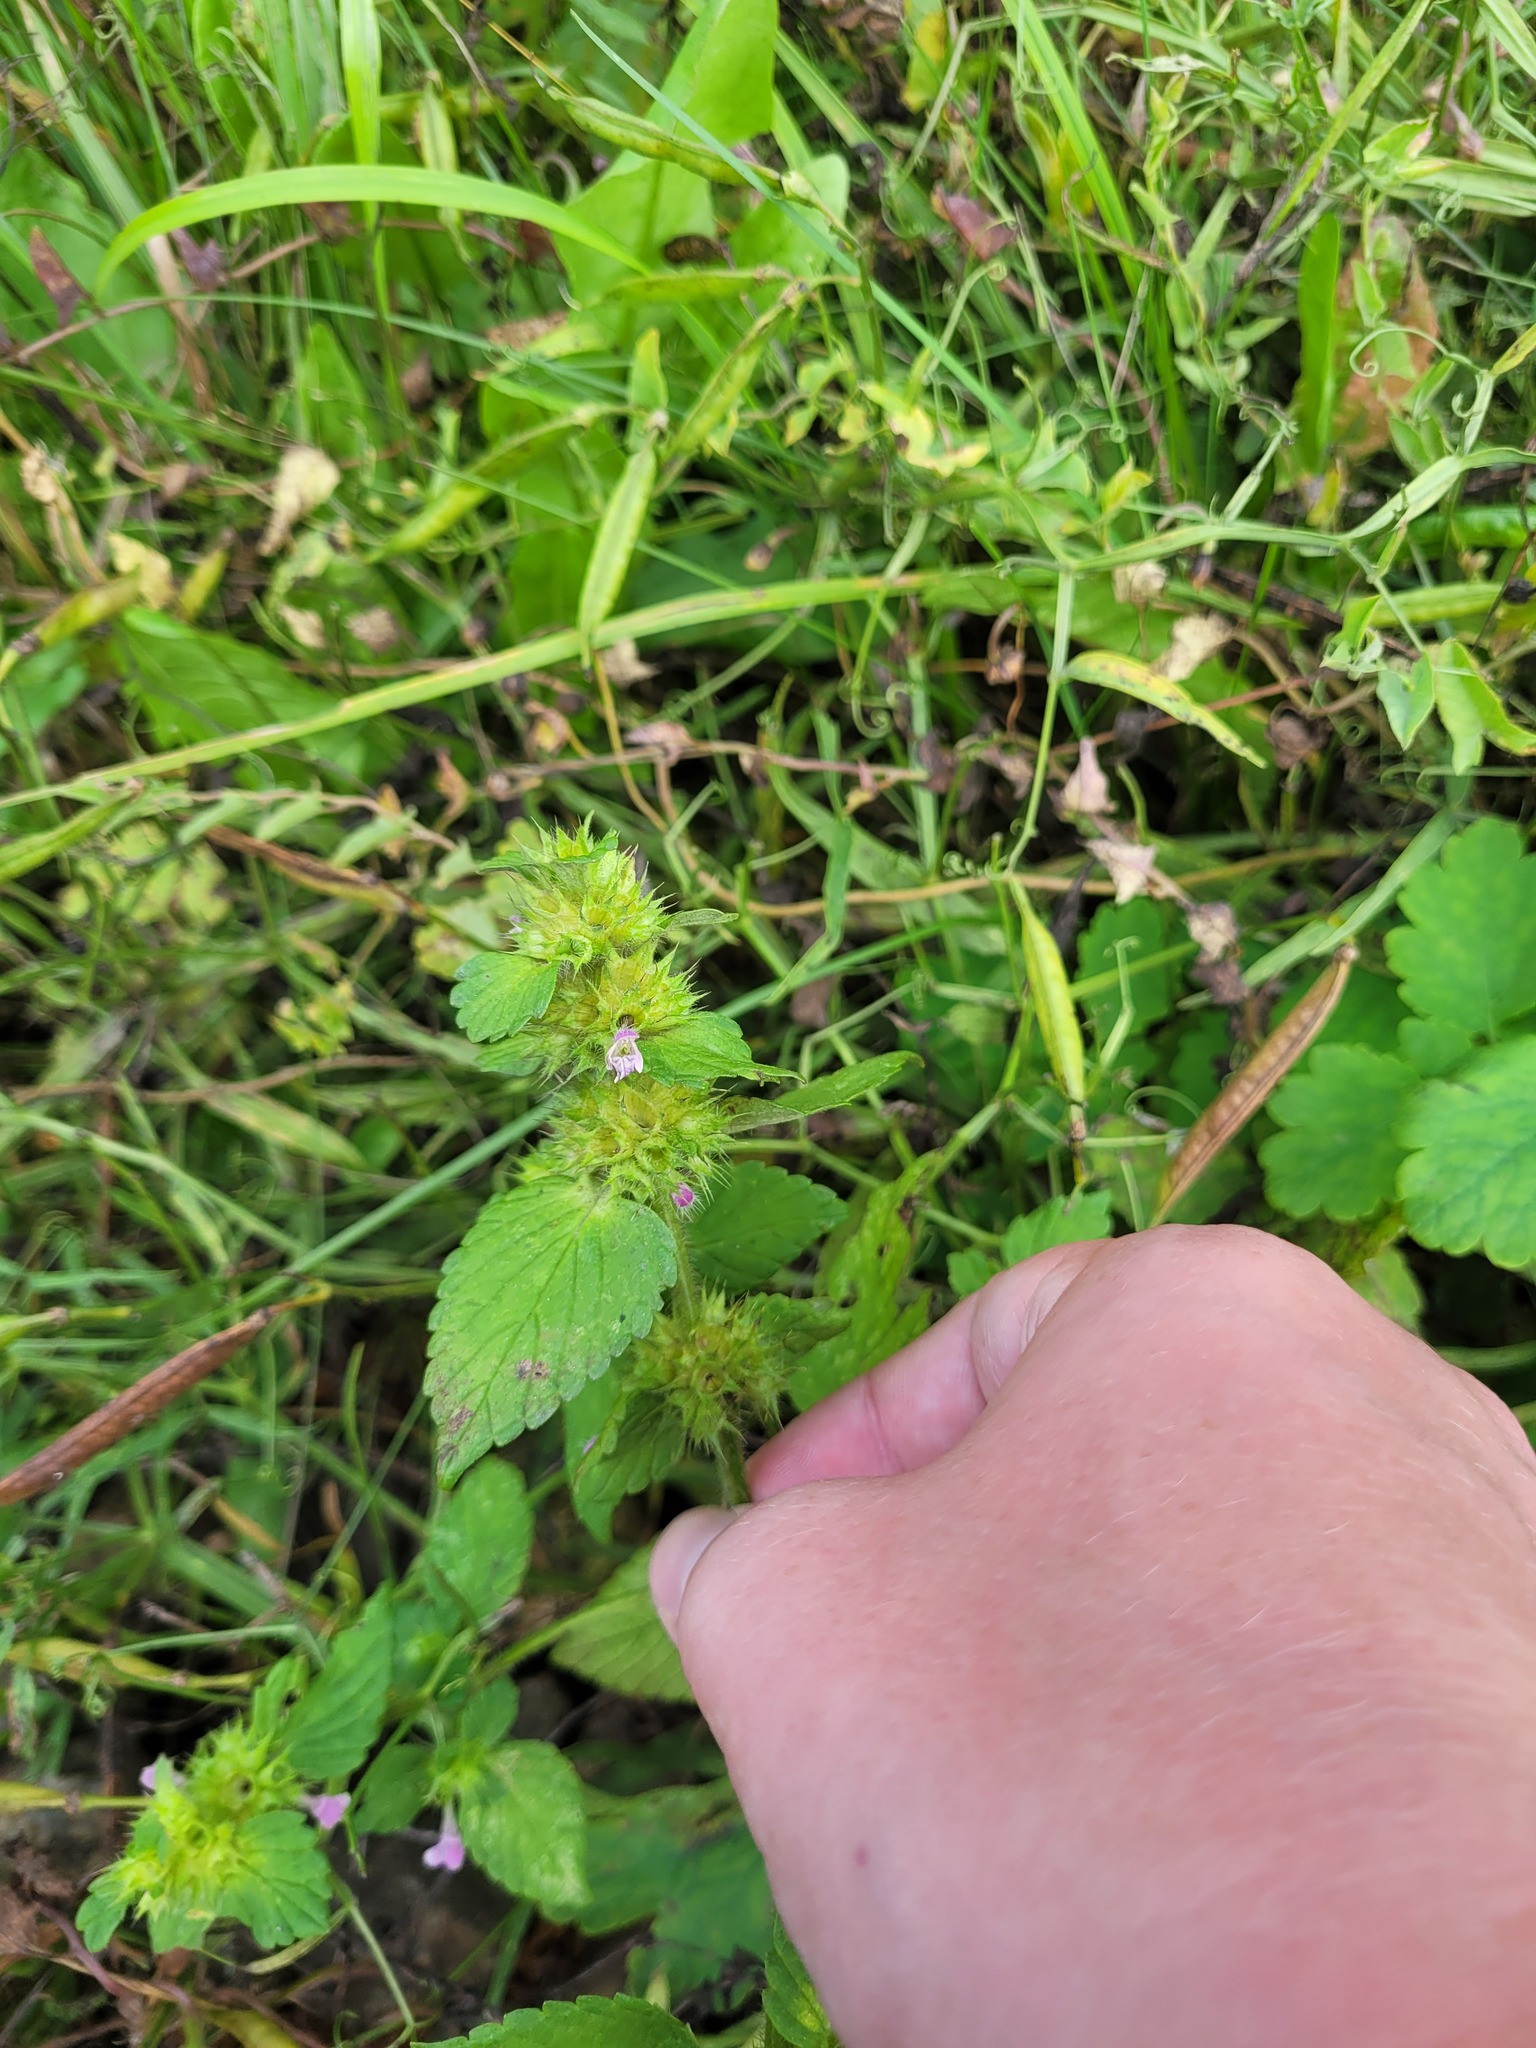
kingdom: Plantae
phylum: Tracheophyta
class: Magnoliopsida
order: Lamiales
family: Lamiaceae
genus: Galeopsis
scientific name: Galeopsis bifida
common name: Bifid hemp-nettle
